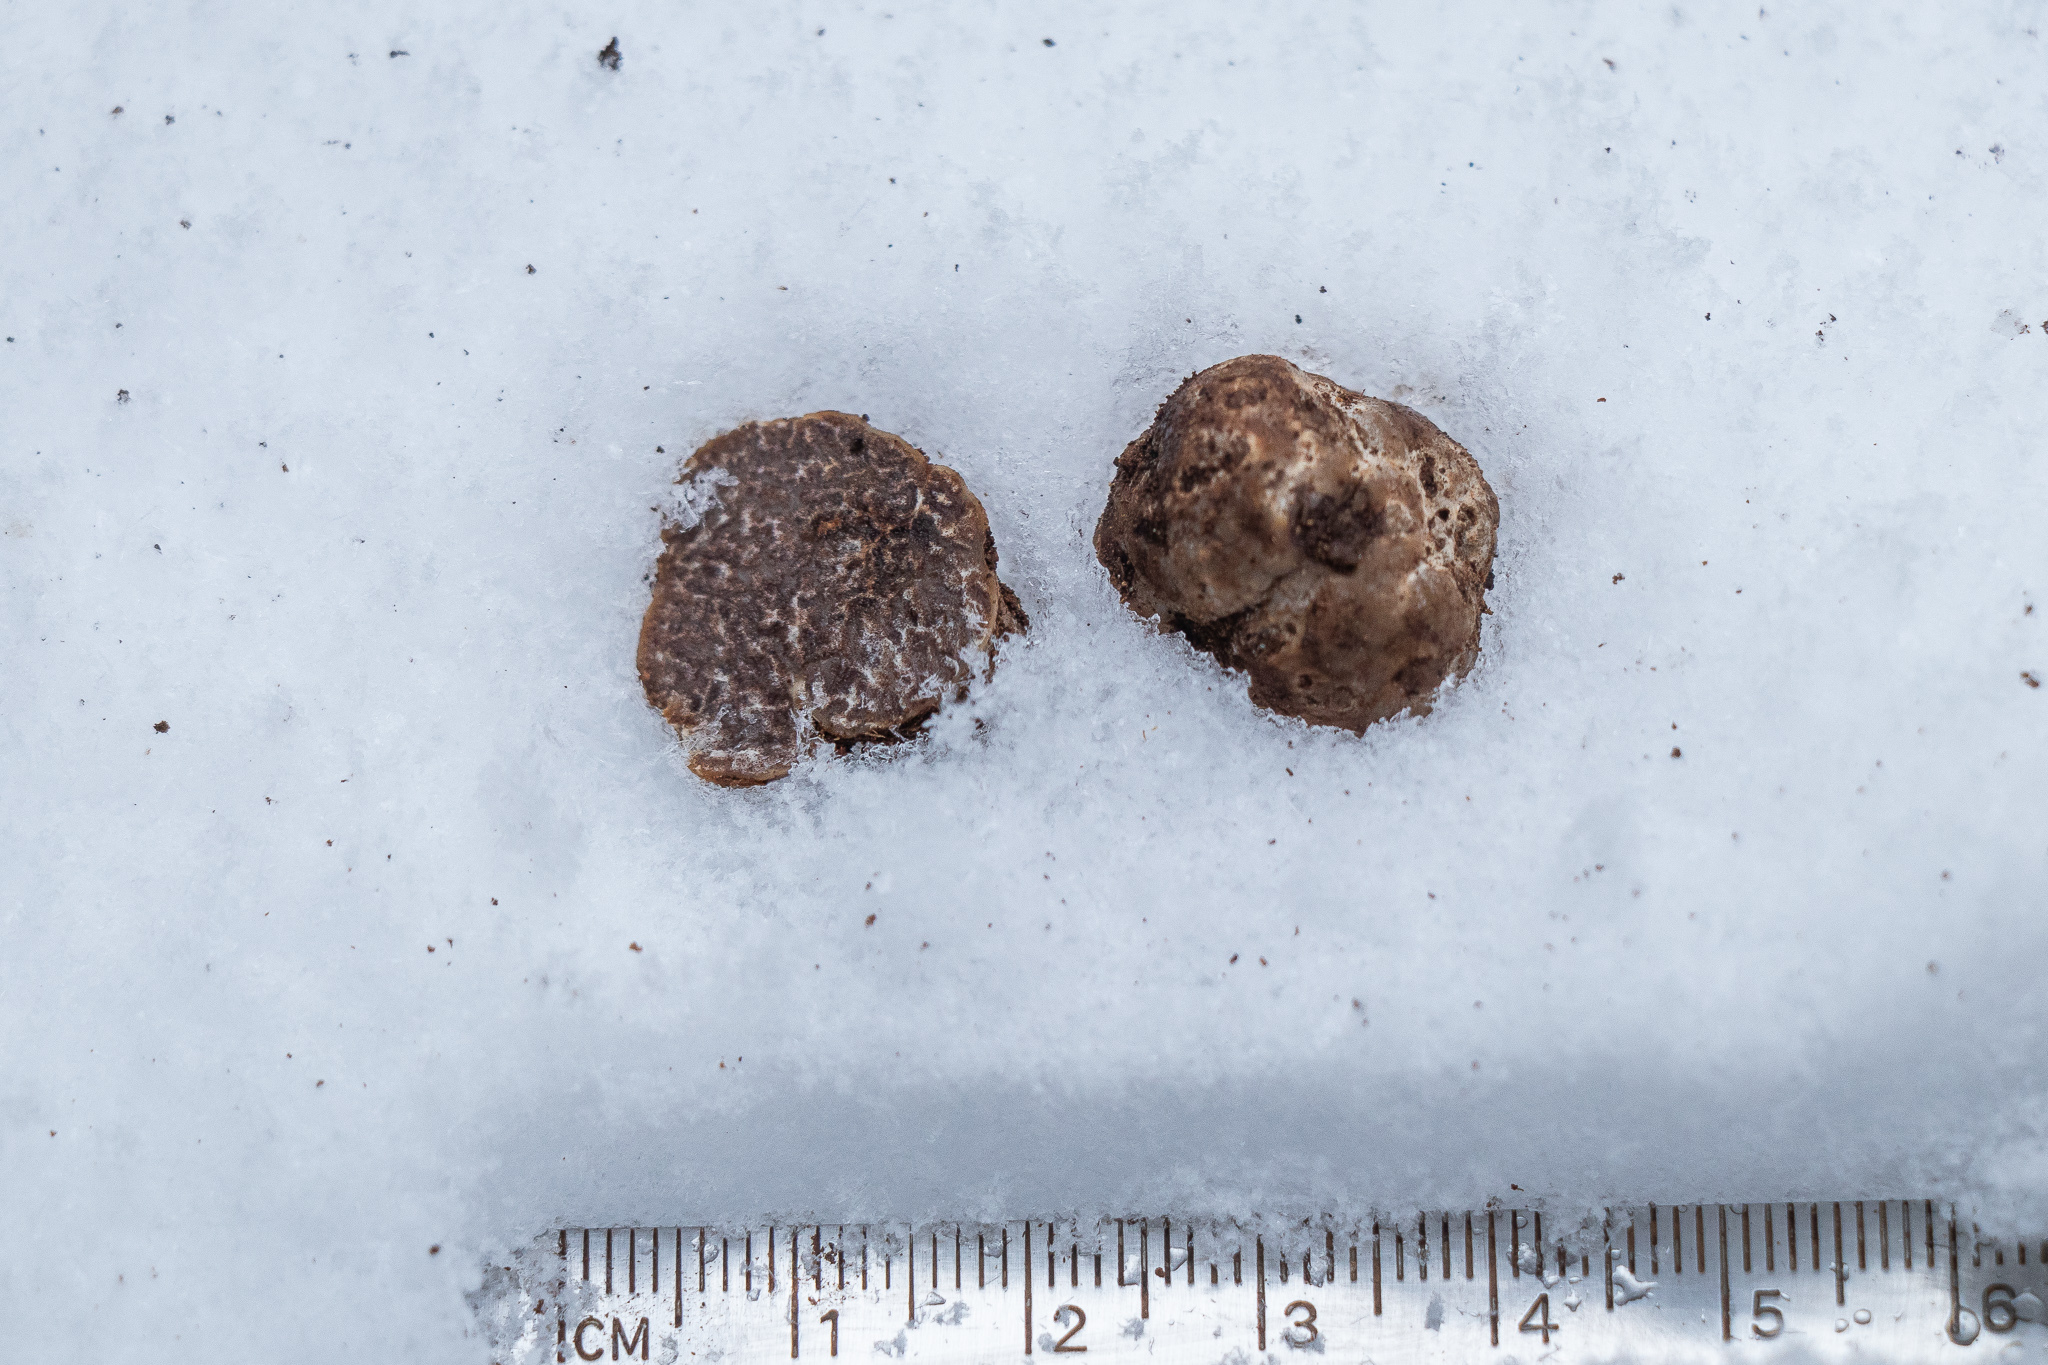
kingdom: Fungi
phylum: Ascomycota
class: Pezizomycetes
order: Pezizales
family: Tuberaceae
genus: Tuber
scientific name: Tuber anniae
